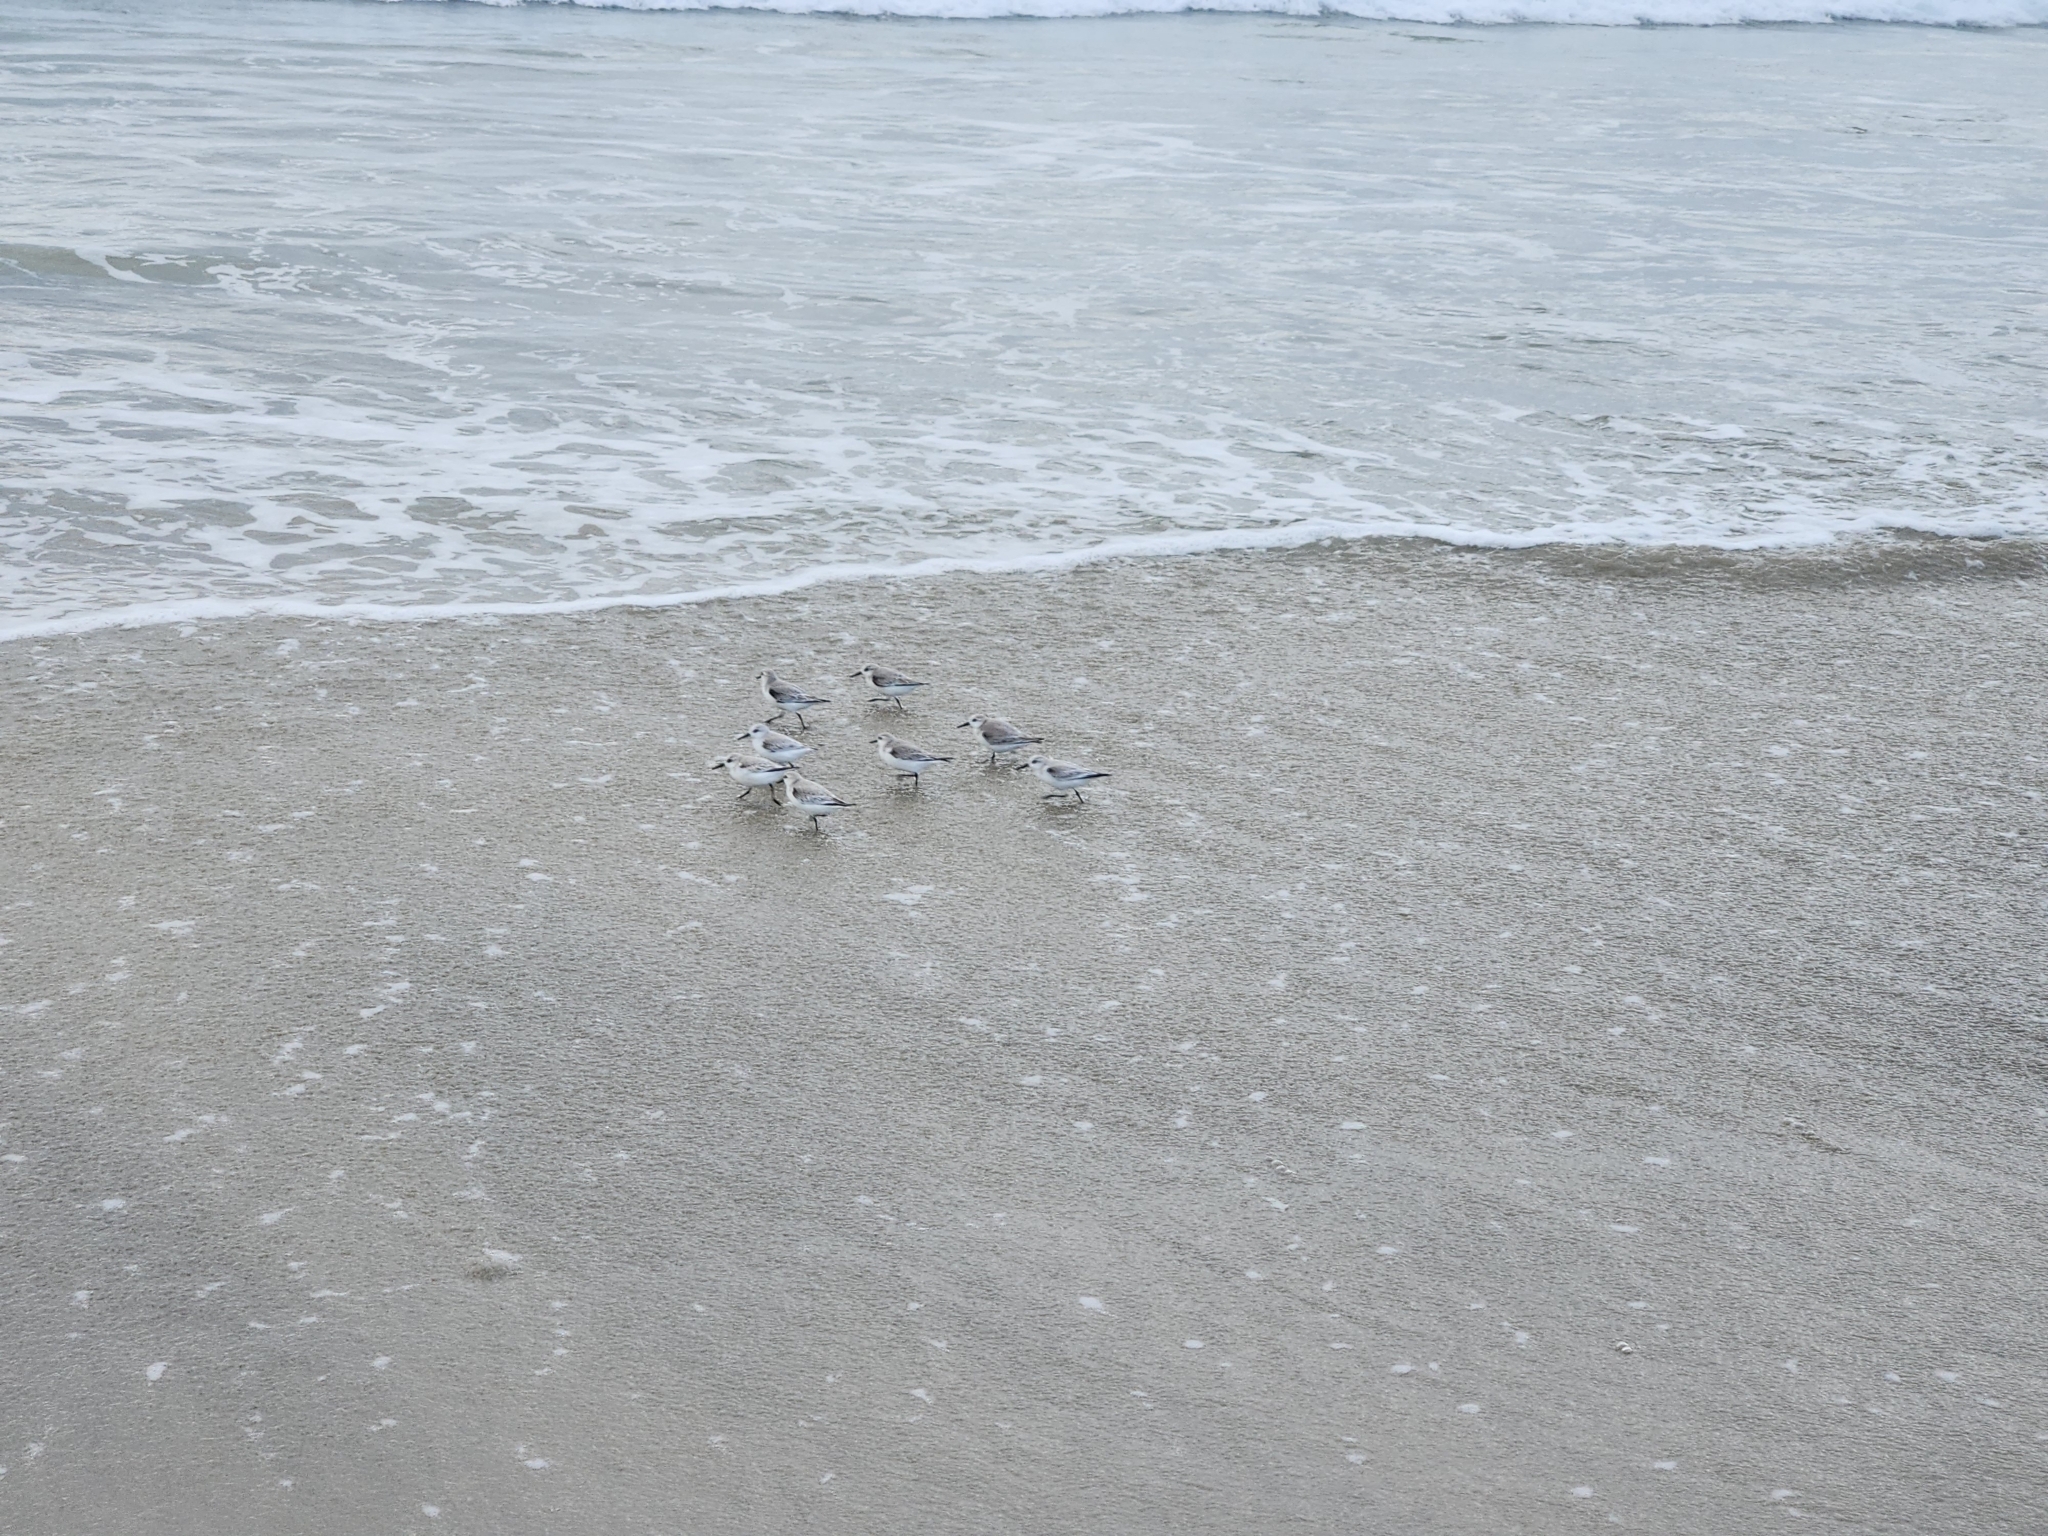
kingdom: Animalia
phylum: Chordata
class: Aves
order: Charadriiformes
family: Scolopacidae
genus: Calidris
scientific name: Calidris alba
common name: Sanderling
